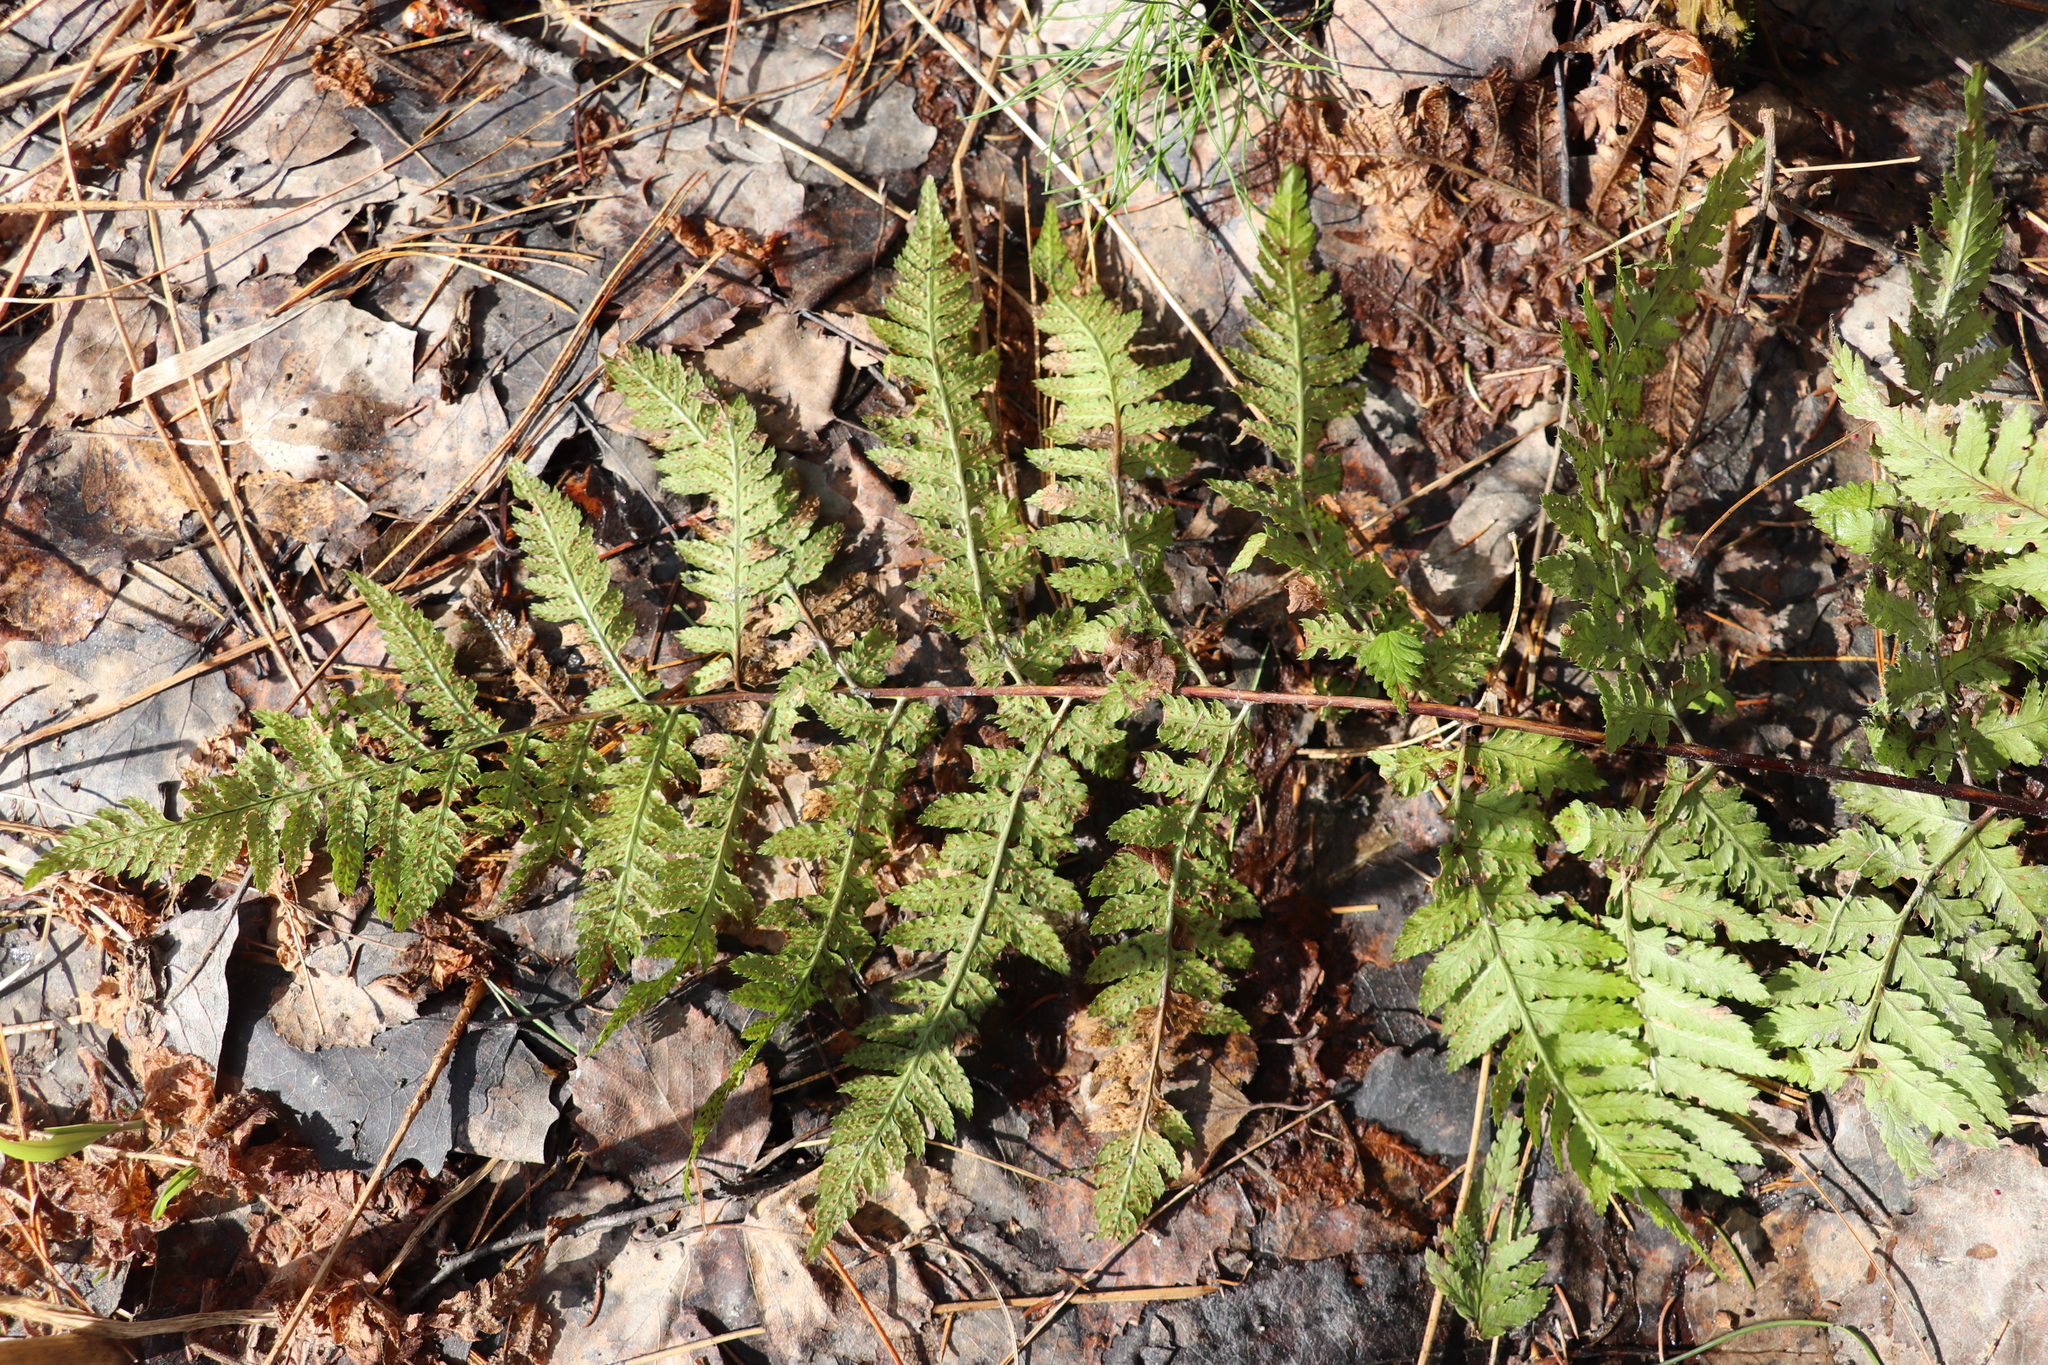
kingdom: Plantae
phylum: Tracheophyta
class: Polypodiopsida
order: Polypodiales
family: Dryopteridaceae
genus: Dryopteris
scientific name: Dryopteris carthusiana
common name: Narrow buckler-fern
